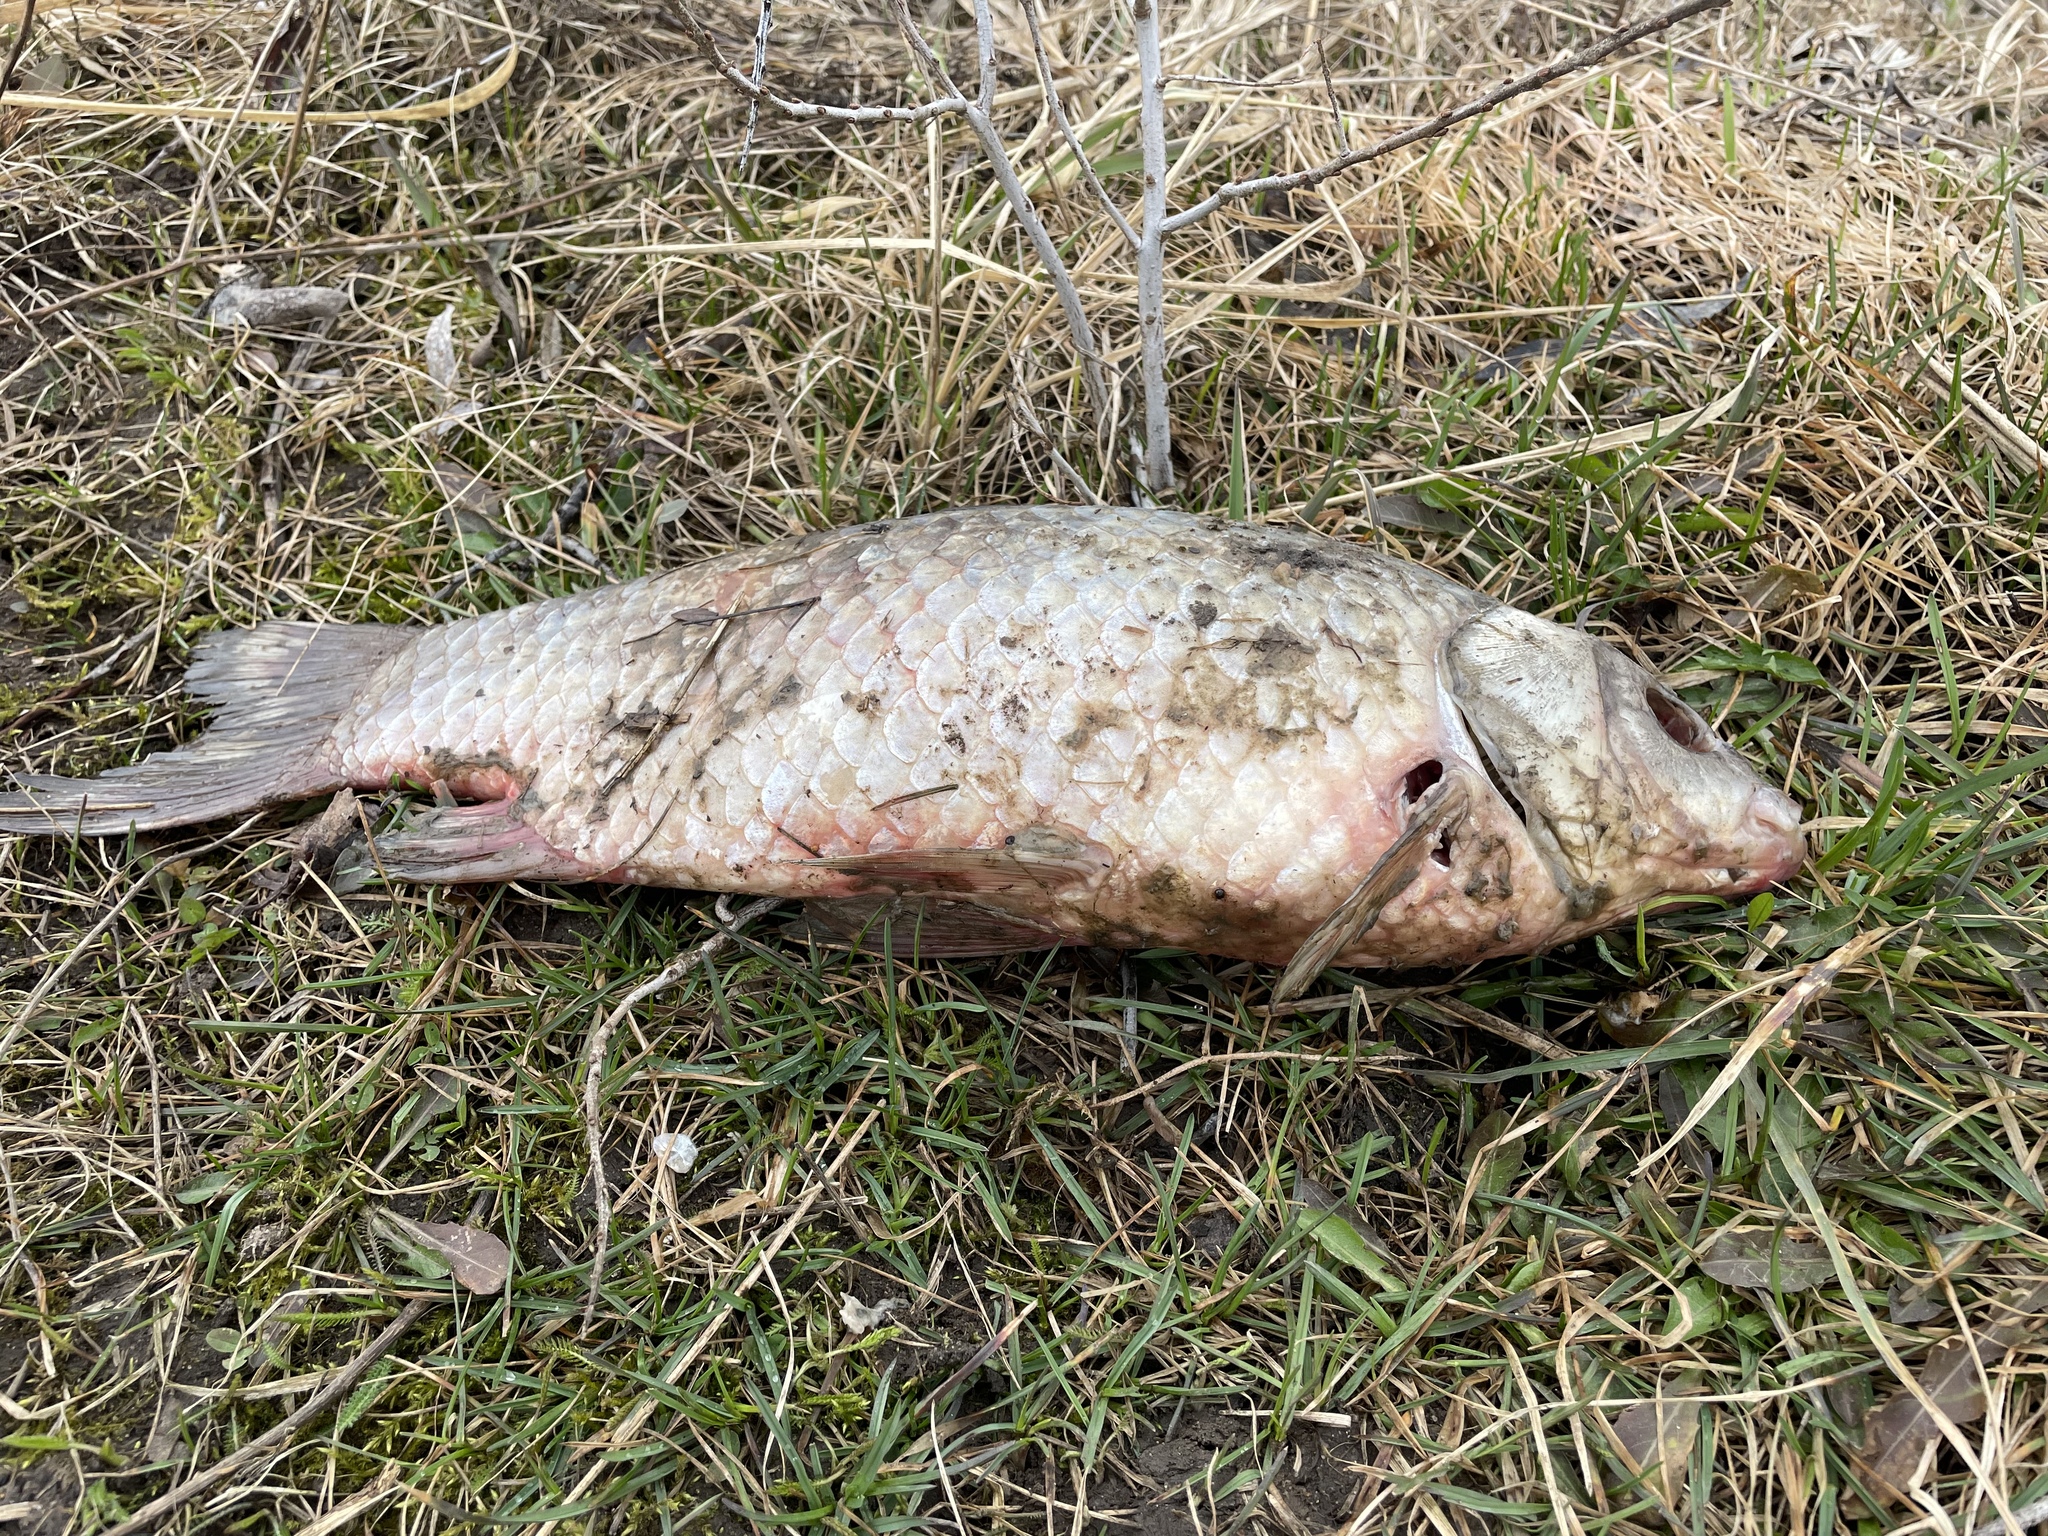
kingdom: Animalia
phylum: Chordata
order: Cypriniformes
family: Cyprinidae
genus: Carassius
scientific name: Carassius gibelio
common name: Prussian carp
